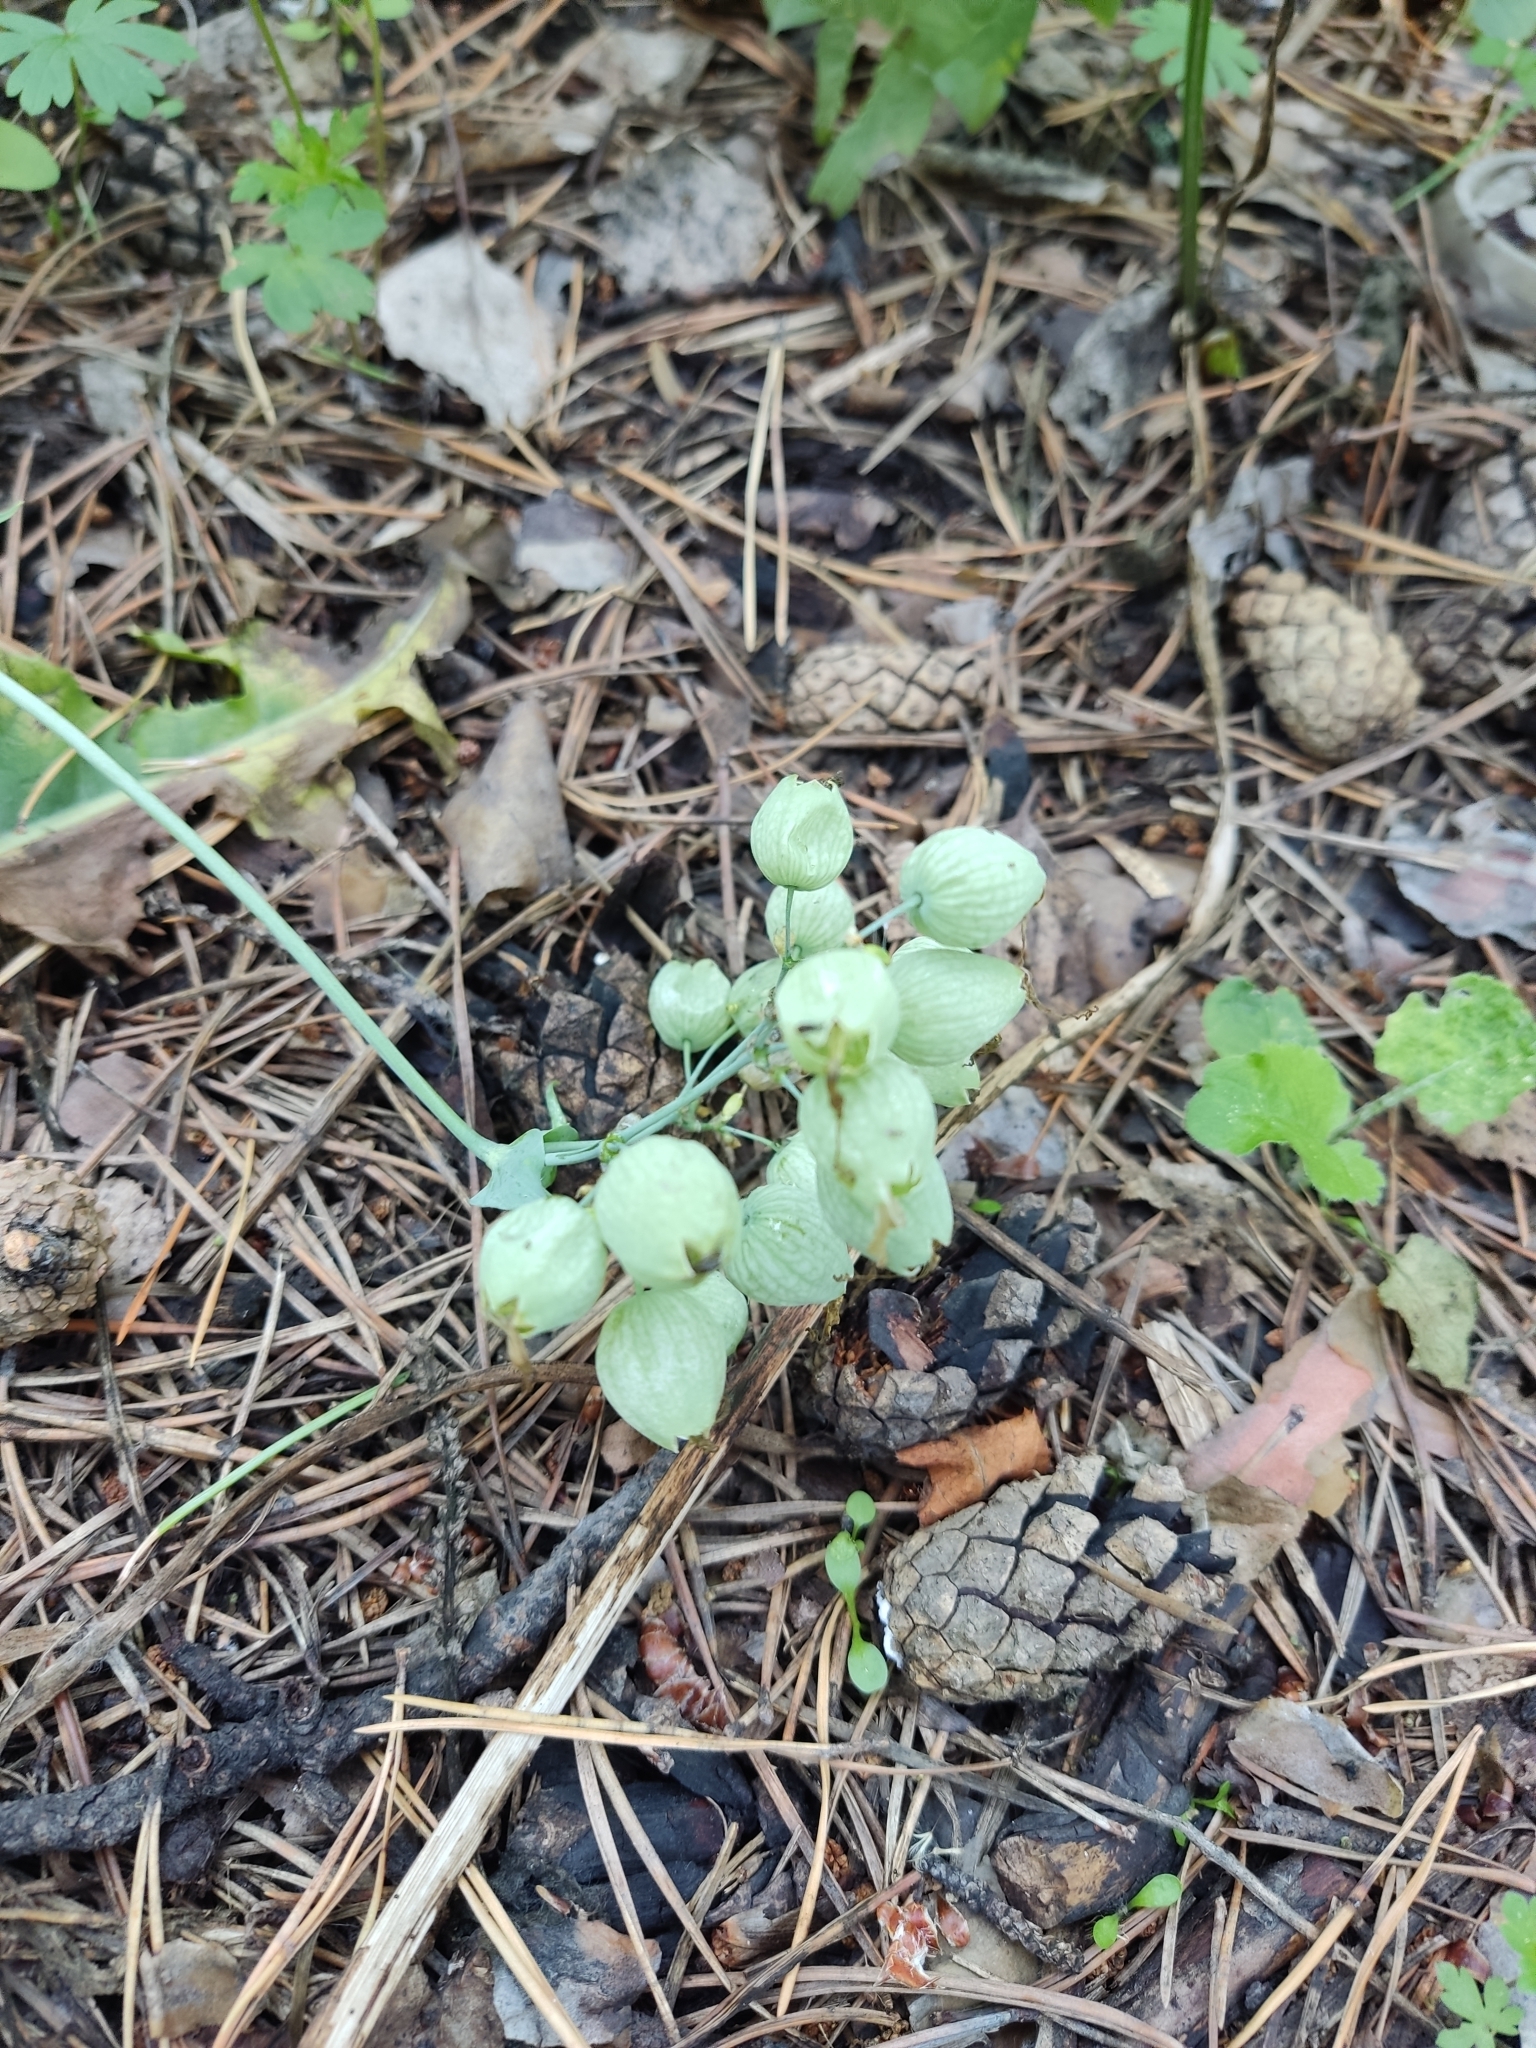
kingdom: Plantae
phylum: Tracheophyta
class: Magnoliopsida
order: Caryophyllales
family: Caryophyllaceae
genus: Silene
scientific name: Silene vulgaris
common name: Bladder campion
